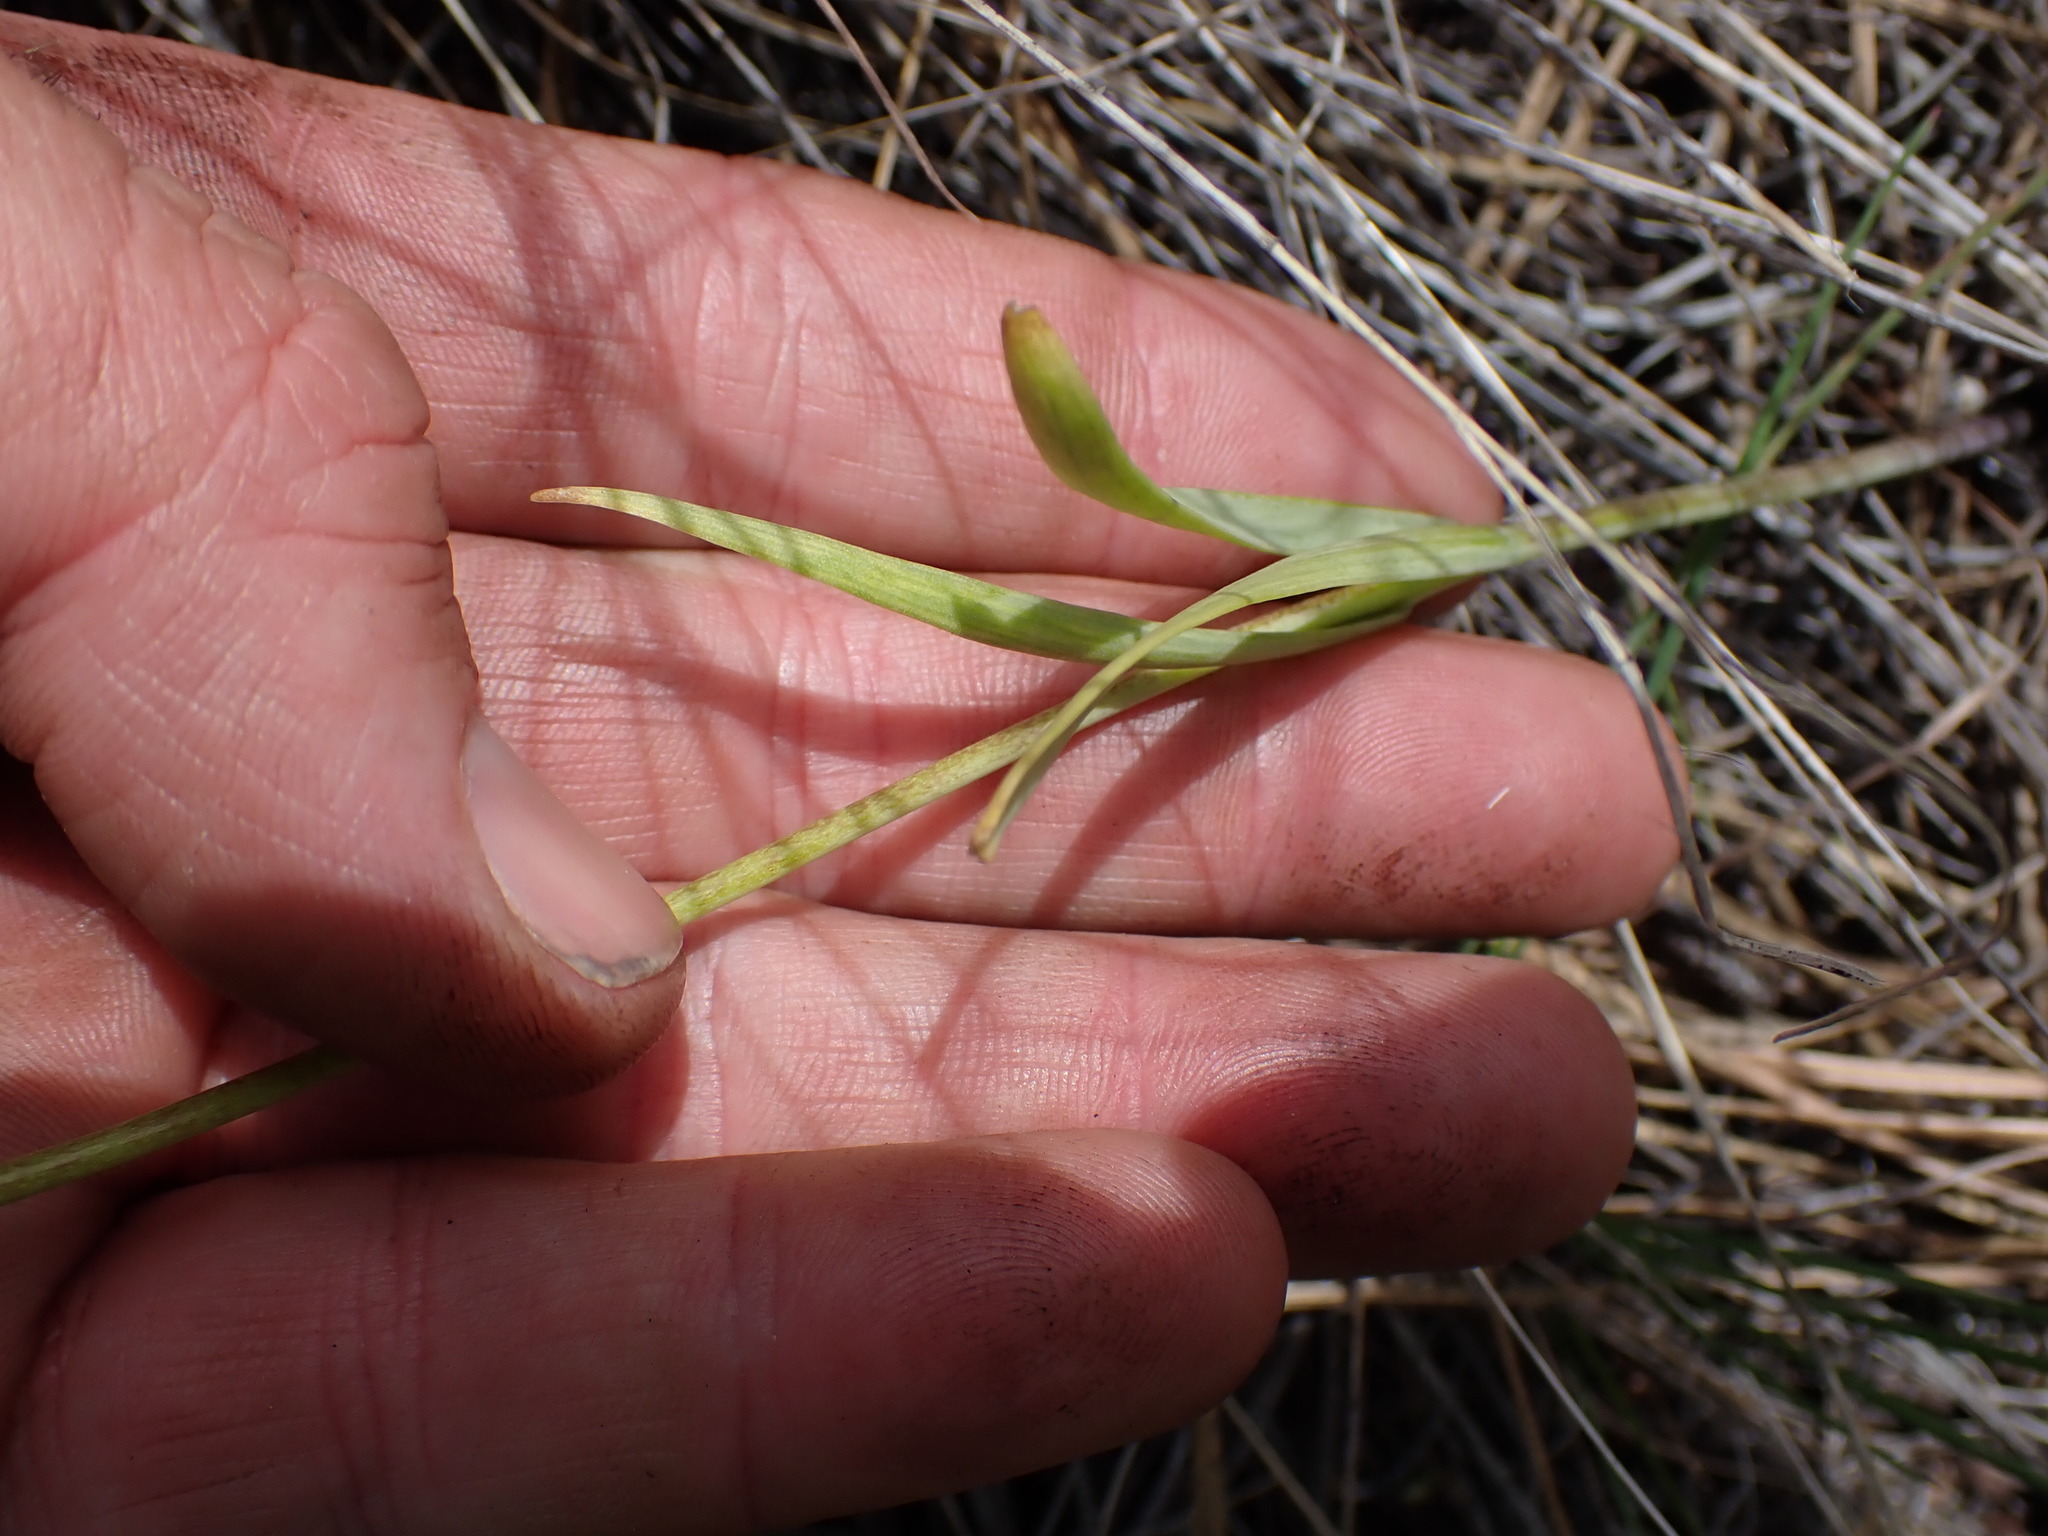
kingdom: Plantae
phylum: Tracheophyta
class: Liliopsida
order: Liliales
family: Liliaceae
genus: Fritillaria
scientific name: Fritillaria pudica
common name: Yellow fritillary
